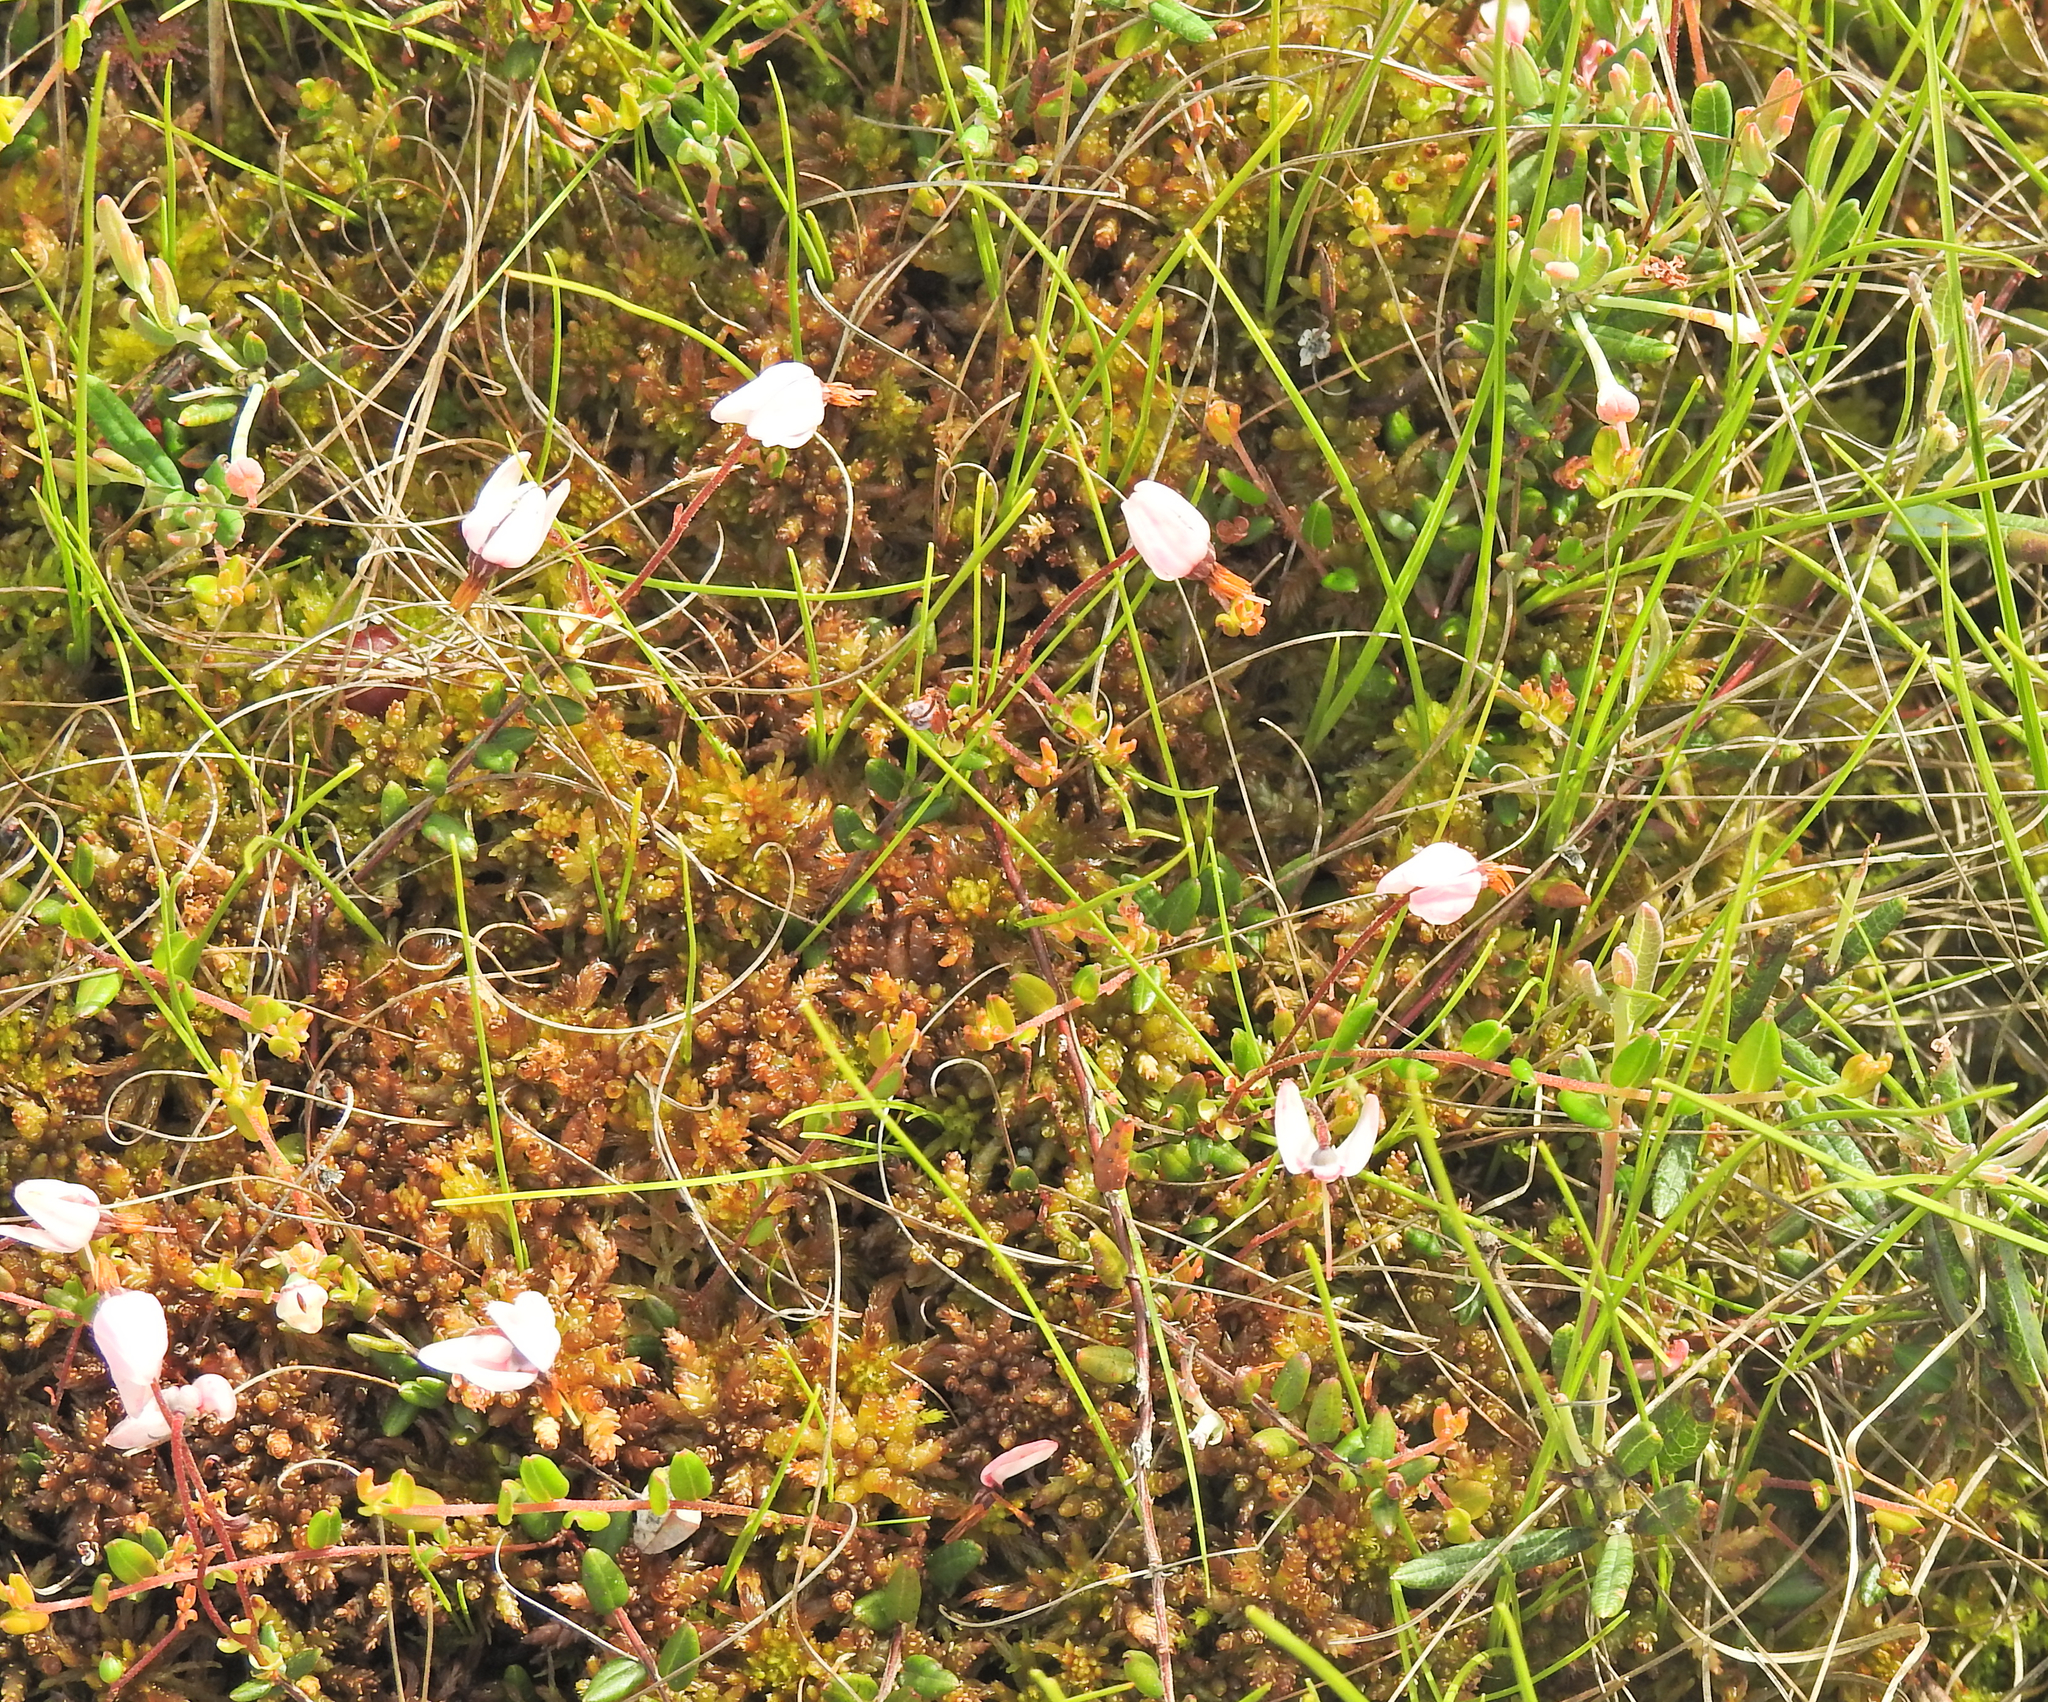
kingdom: Plantae
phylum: Tracheophyta
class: Magnoliopsida
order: Ericales
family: Ericaceae
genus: Vaccinium
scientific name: Vaccinium oxycoccos
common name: Cranberry
